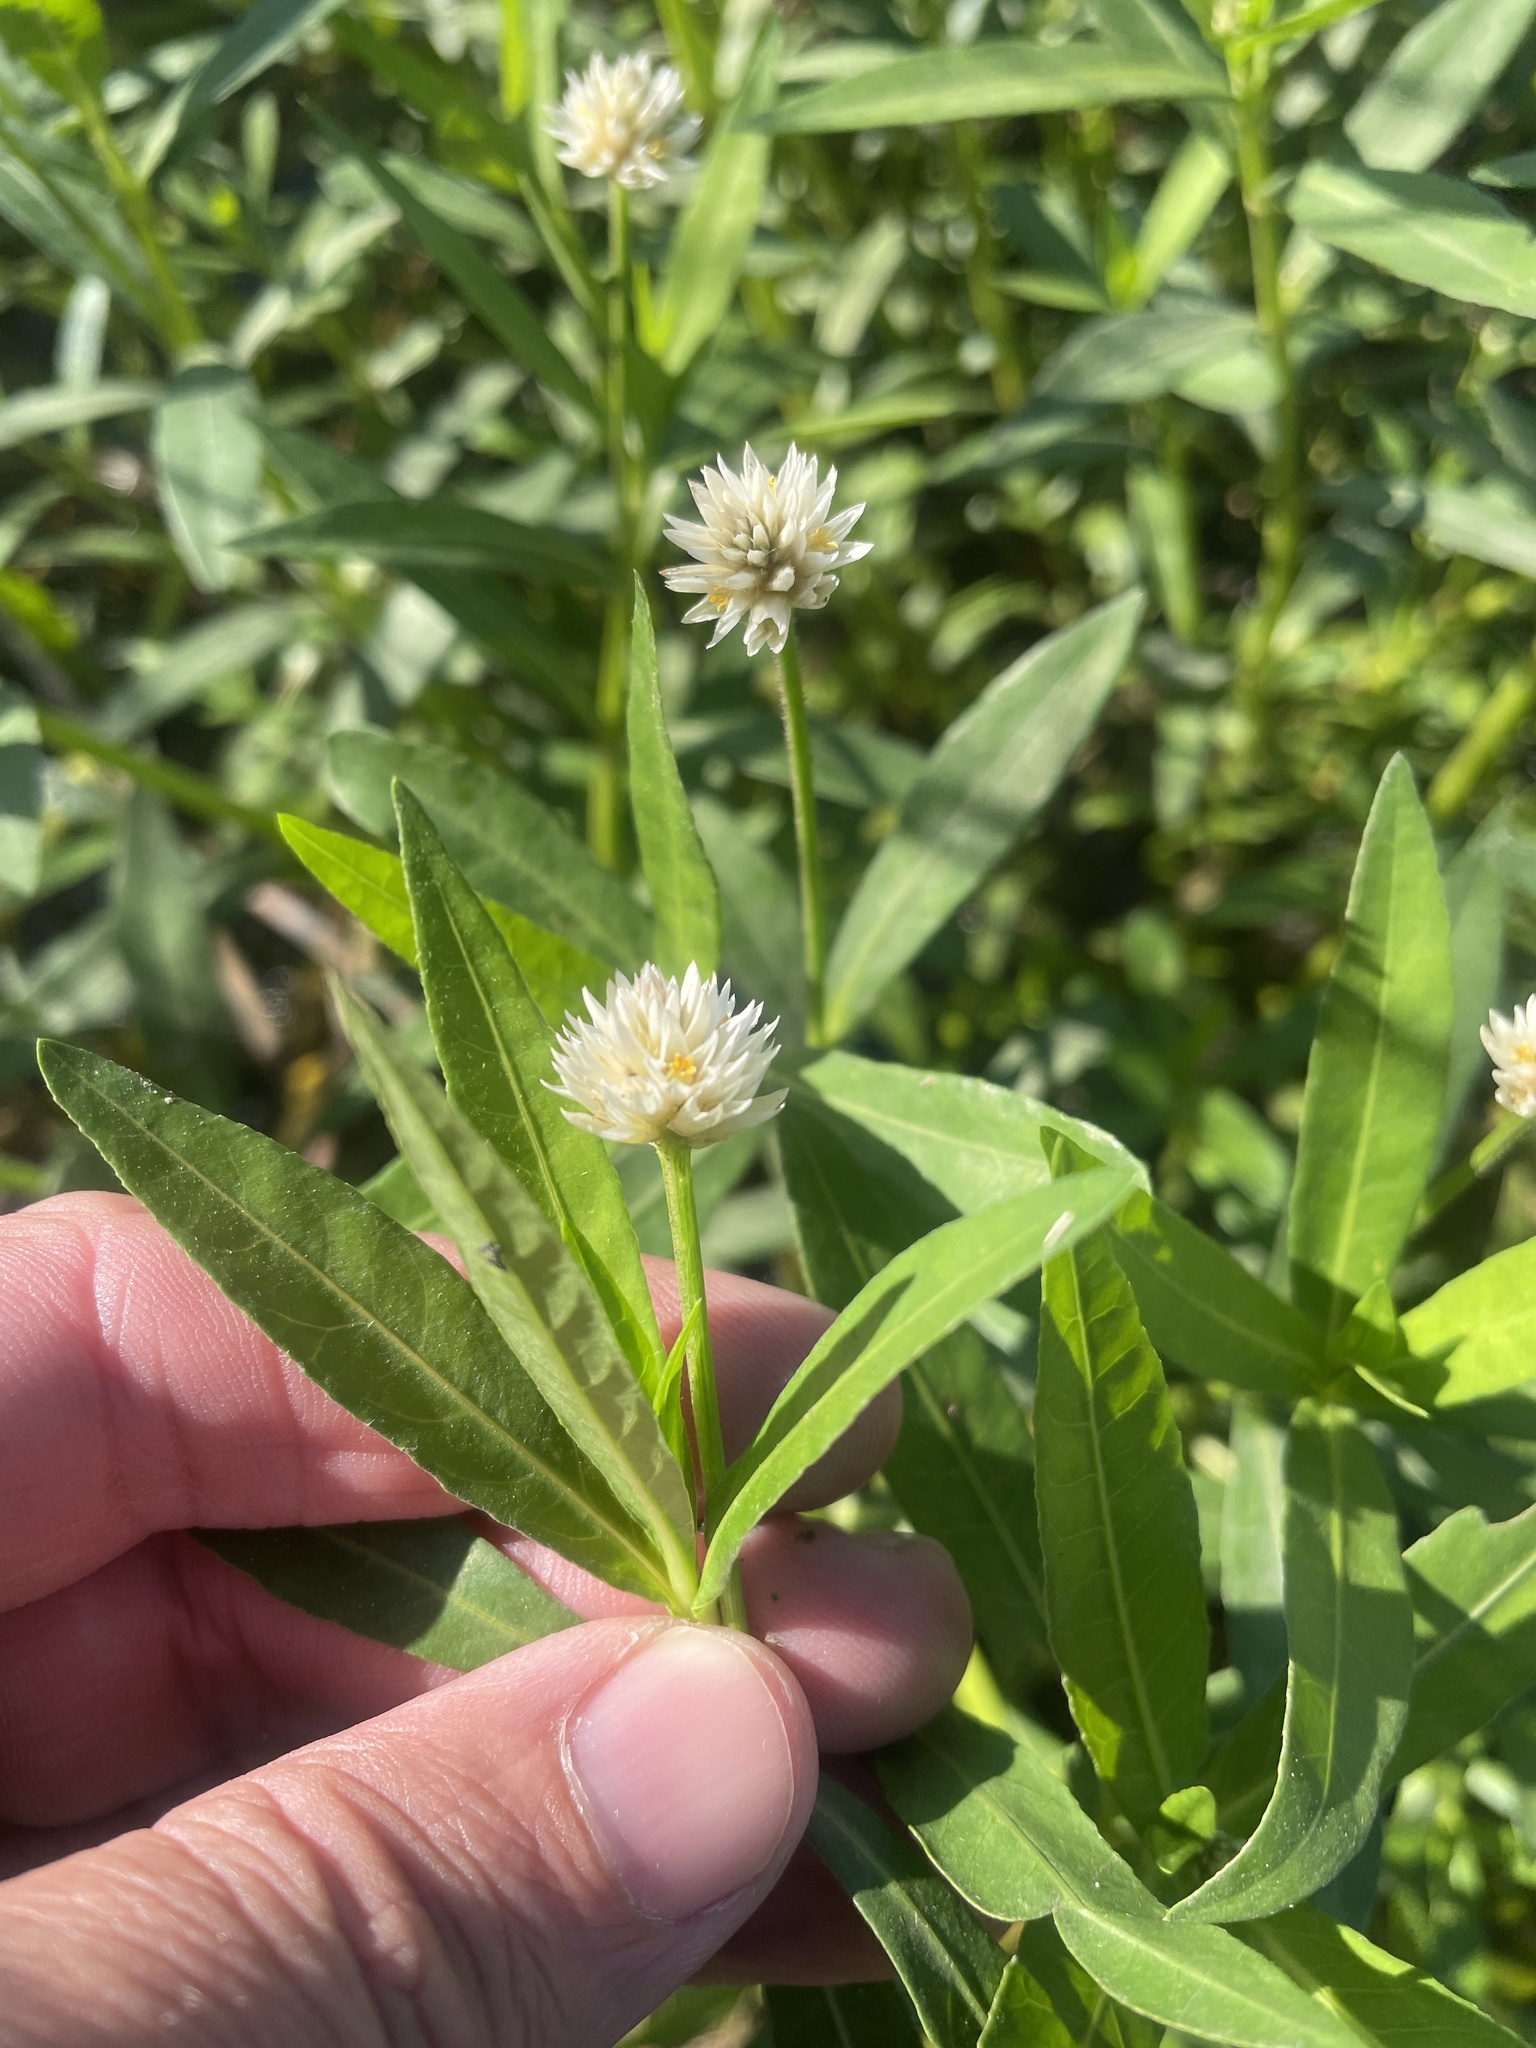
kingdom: Plantae
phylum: Tracheophyta
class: Magnoliopsida
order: Caryophyllales
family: Amaranthaceae
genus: Alternanthera
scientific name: Alternanthera philoxeroides
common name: Alligatorweed
